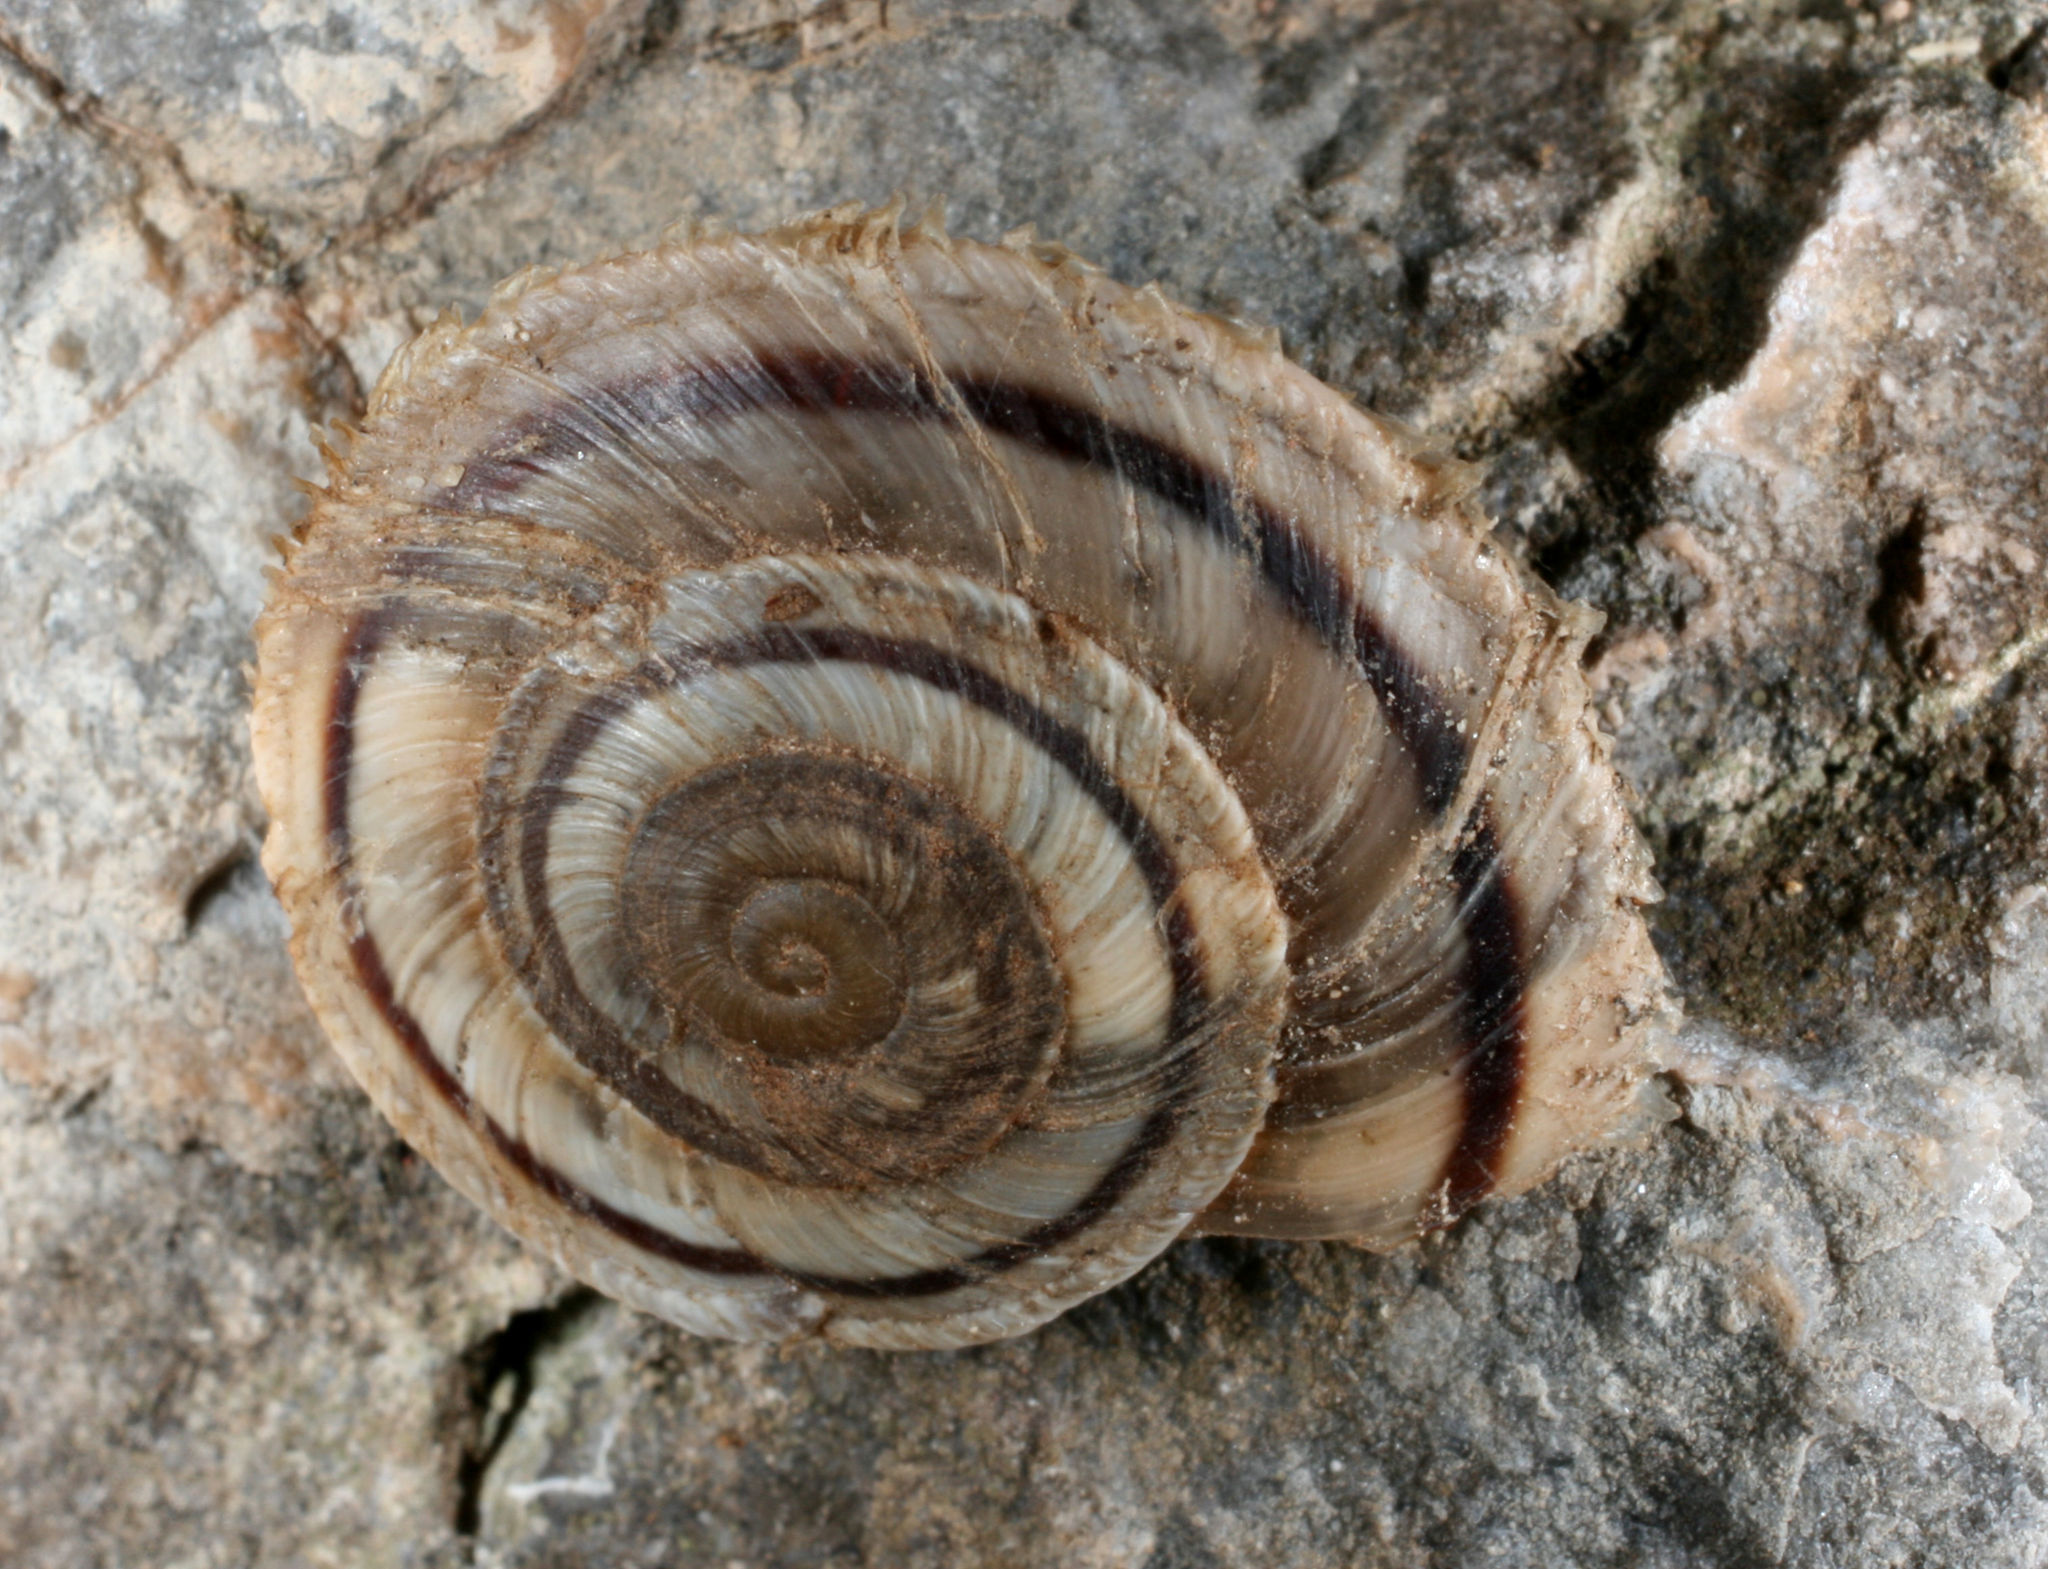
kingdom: Animalia
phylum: Mollusca
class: Gastropoda
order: Stylommatophora
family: Oreohelicidae
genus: Oreohelix
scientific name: Oreohelix concentrata
